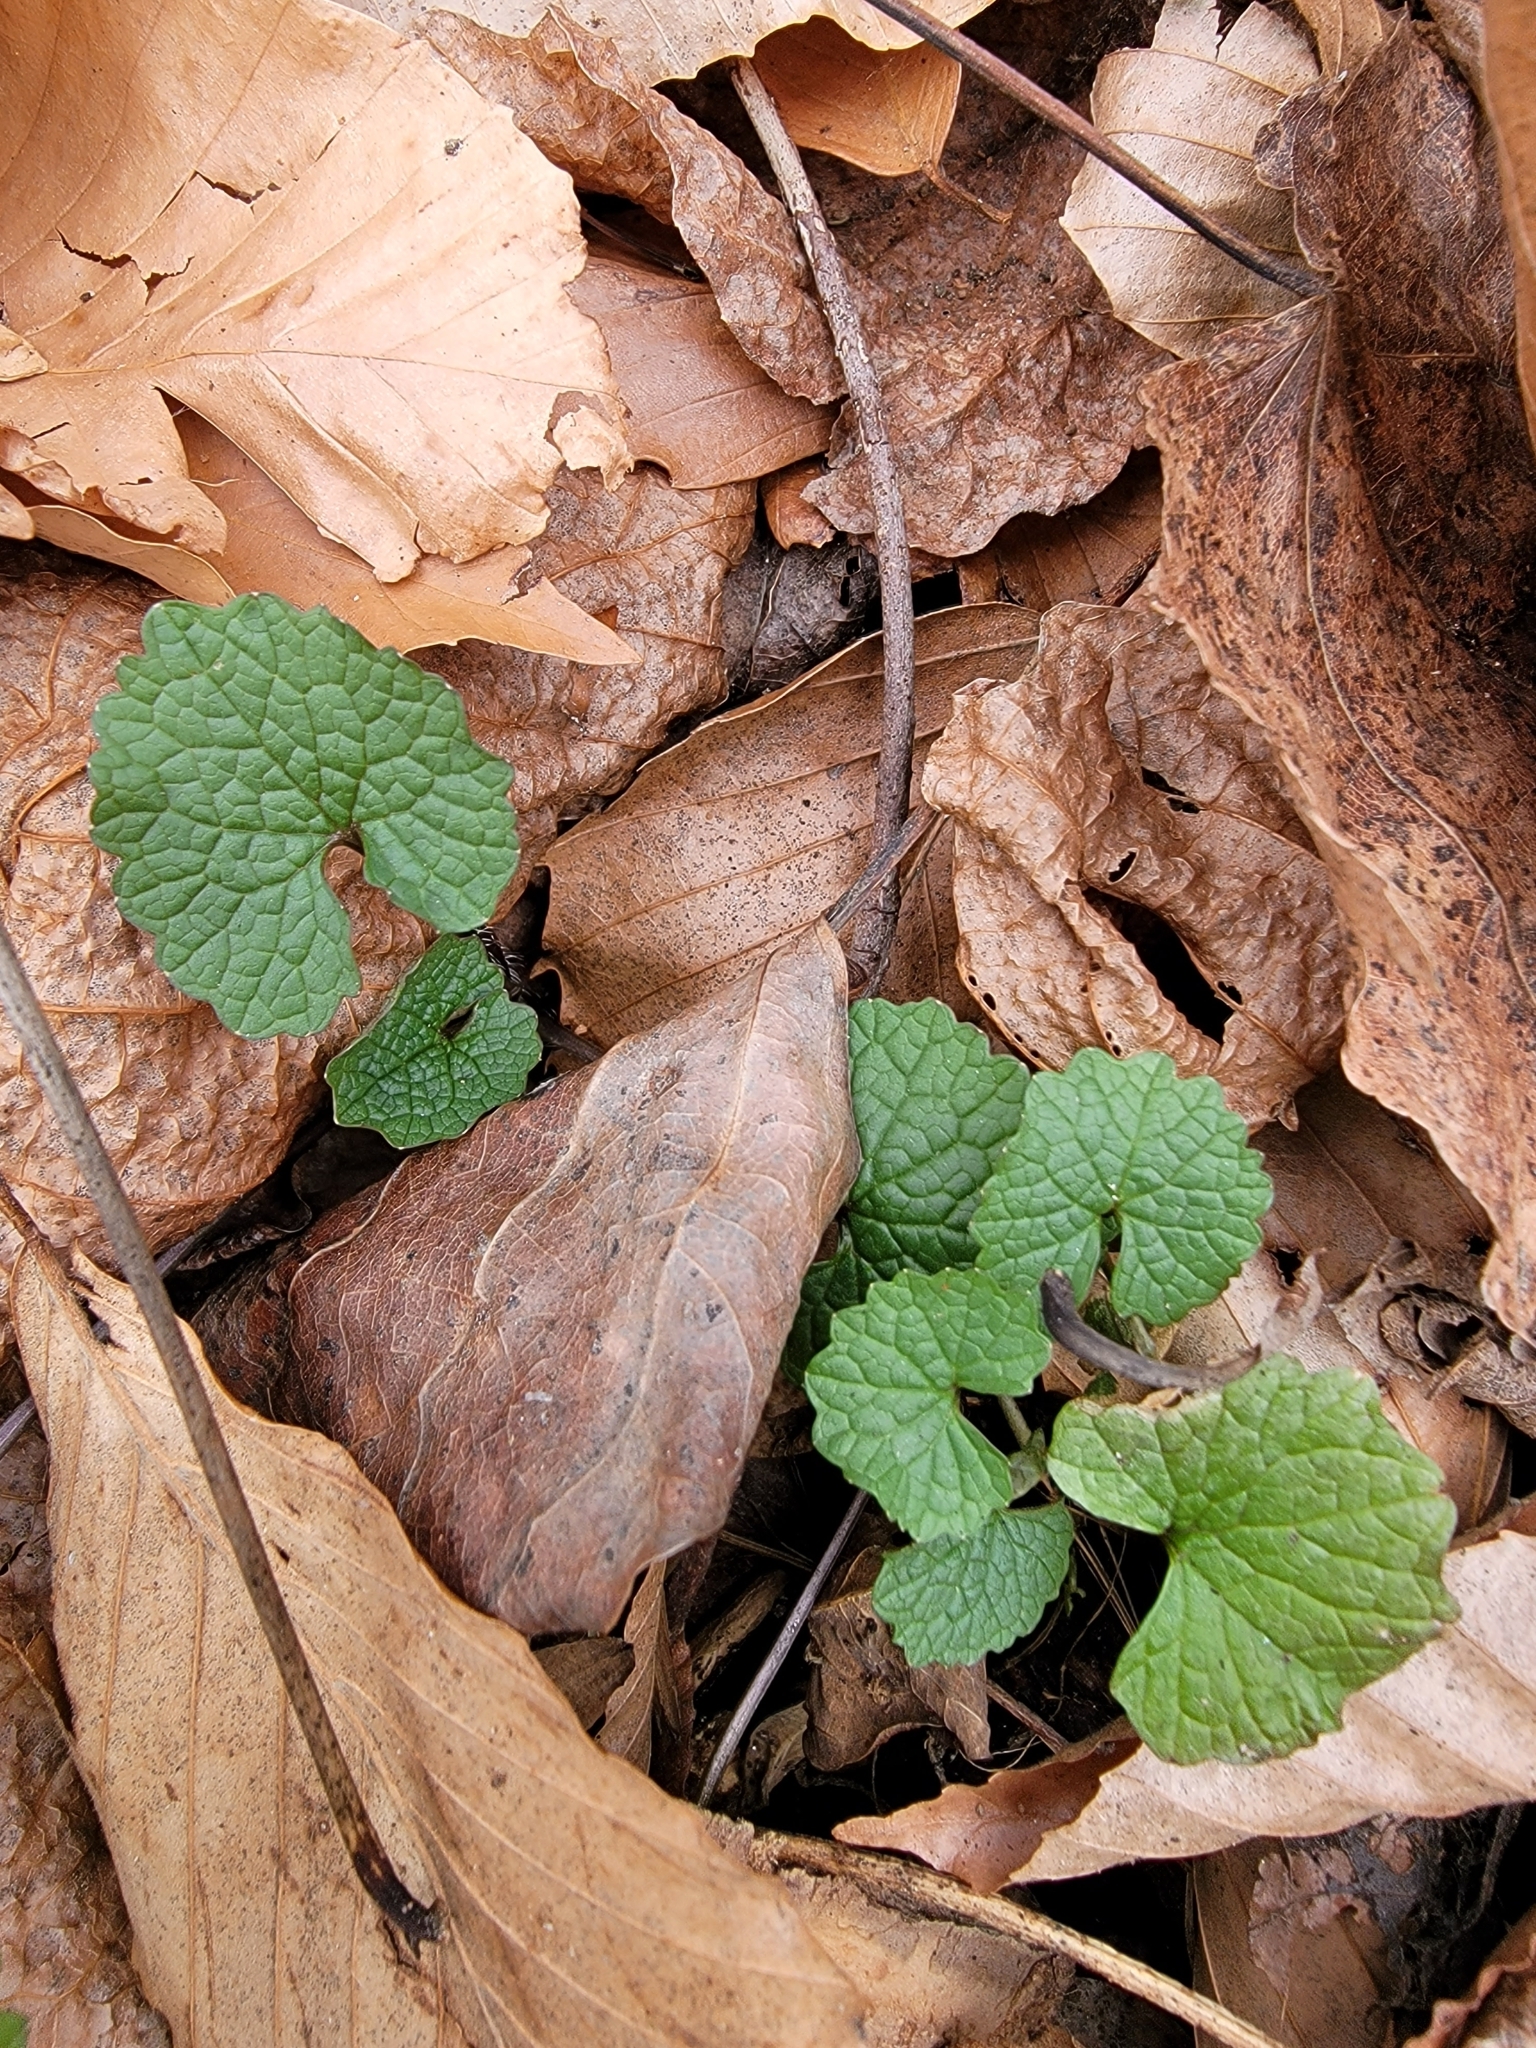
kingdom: Plantae
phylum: Tracheophyta
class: Magnoliopsida
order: Brassicales
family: Brassicaceae
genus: Alliaria
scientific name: Alliaria petiolata
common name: Garlic mustard
